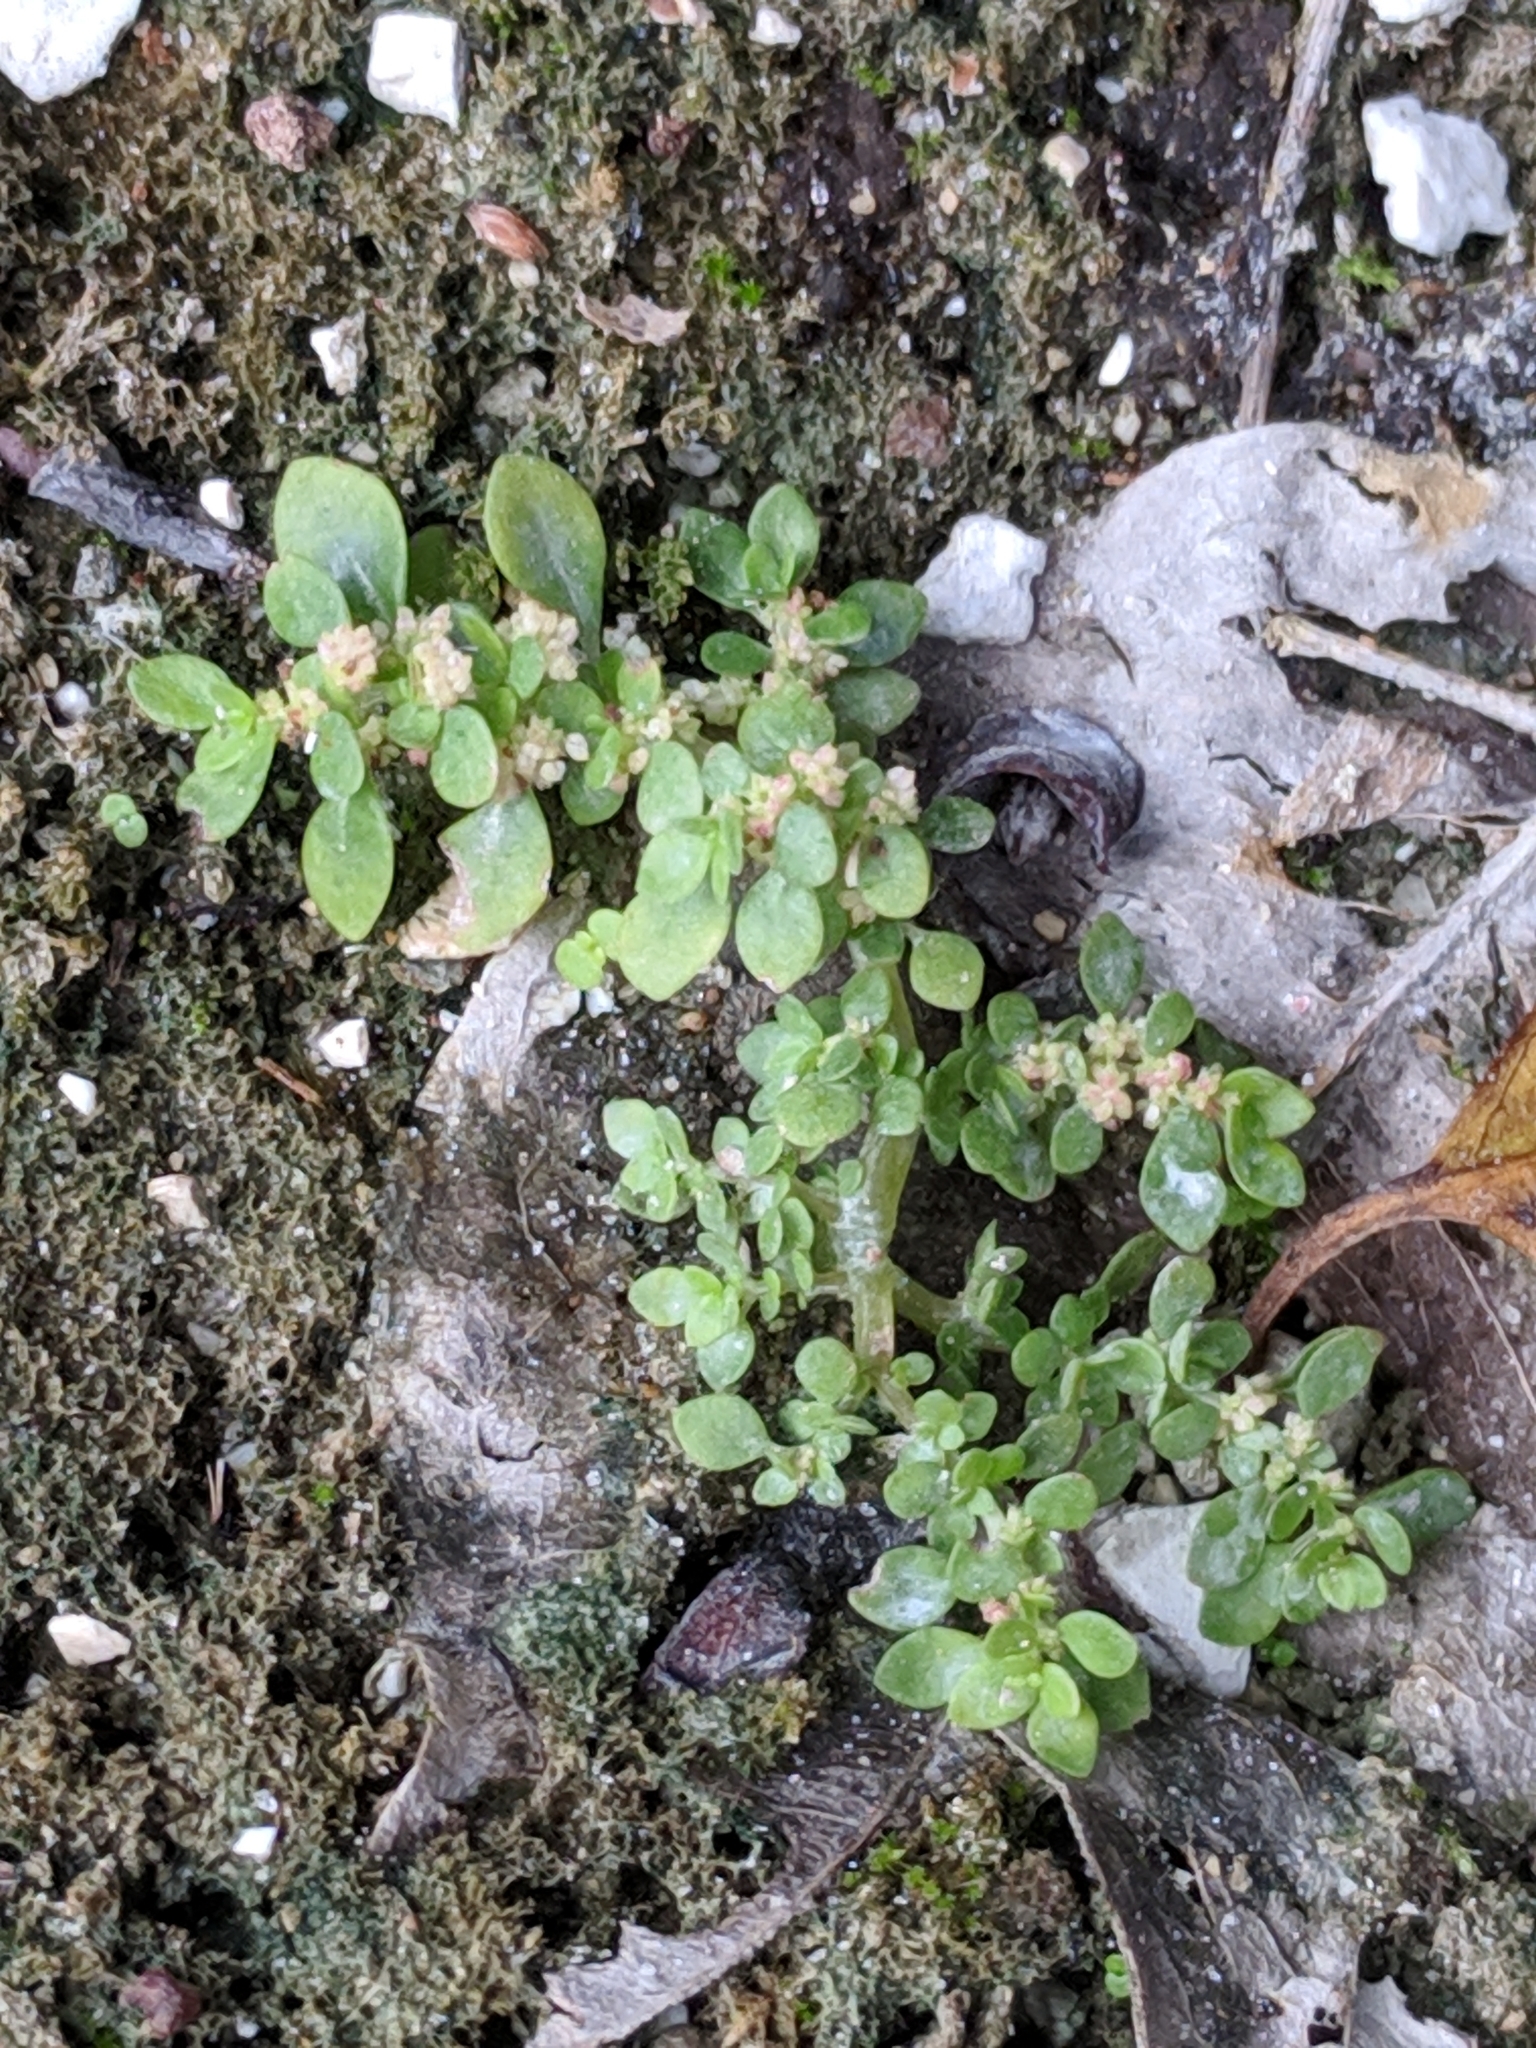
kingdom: Plantae
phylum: Tracheophyta
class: Magnoliopsida
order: Rosales
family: Urticaceae
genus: Pilea
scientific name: Pilea microphylla
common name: Artillery-plant
